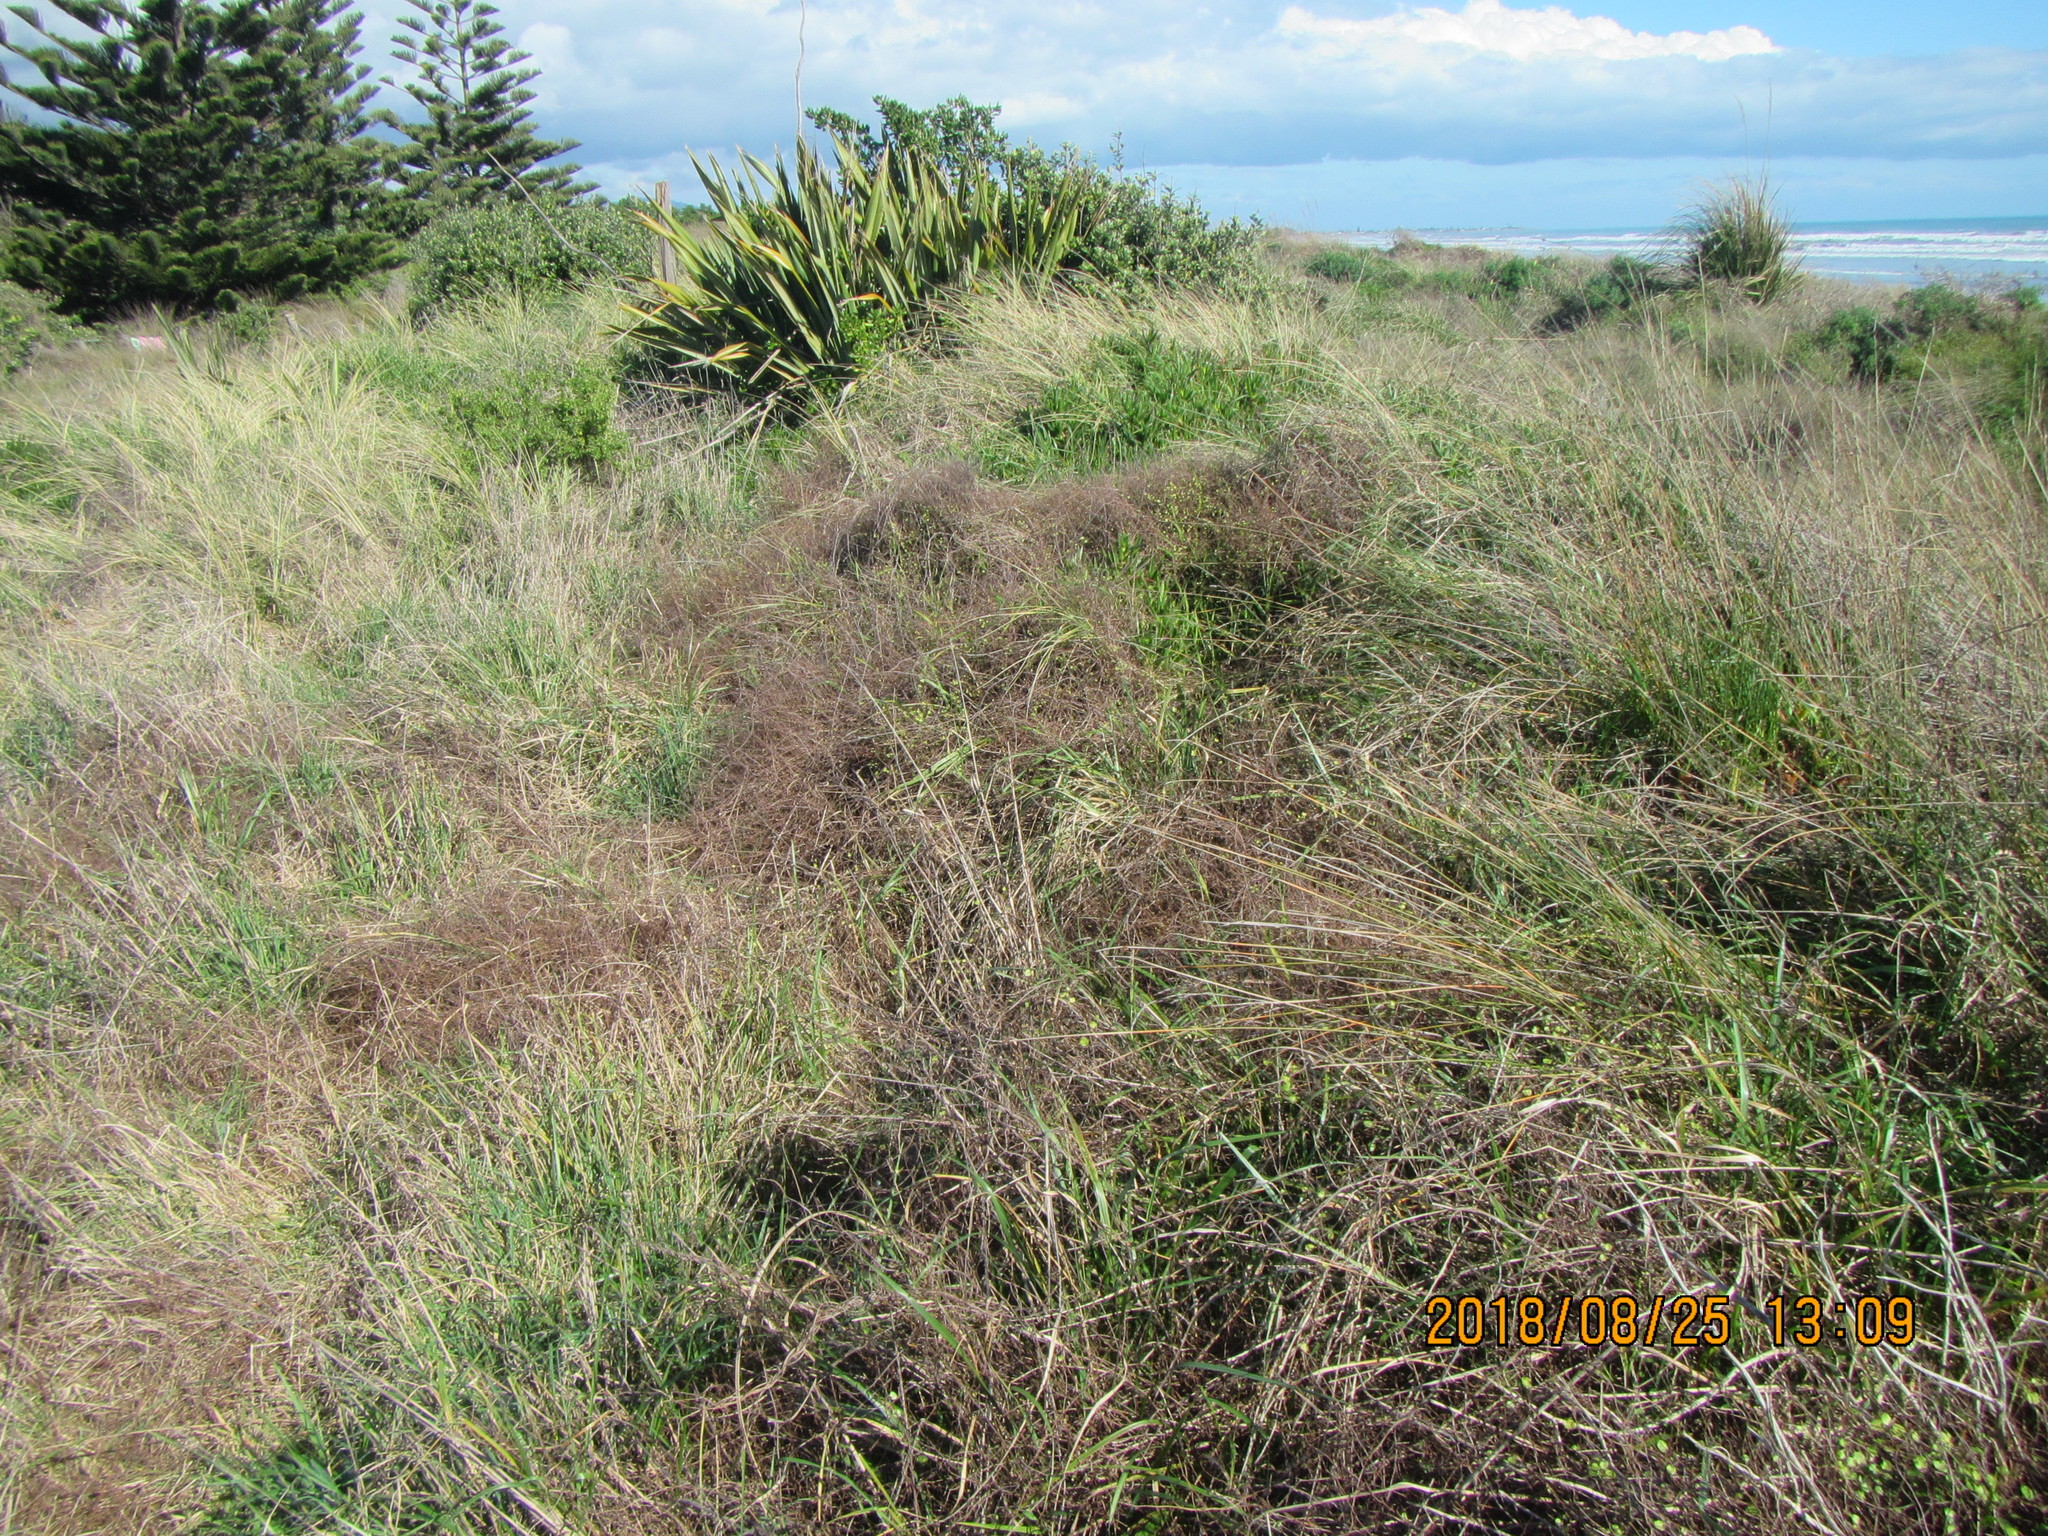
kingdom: Plantae
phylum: Tracheophyta
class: Magnoliopsida
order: Caryophyllales
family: Polygonaceae
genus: Muehlenbeckia
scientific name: Muehlenbeckia complexa
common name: Wireplant
